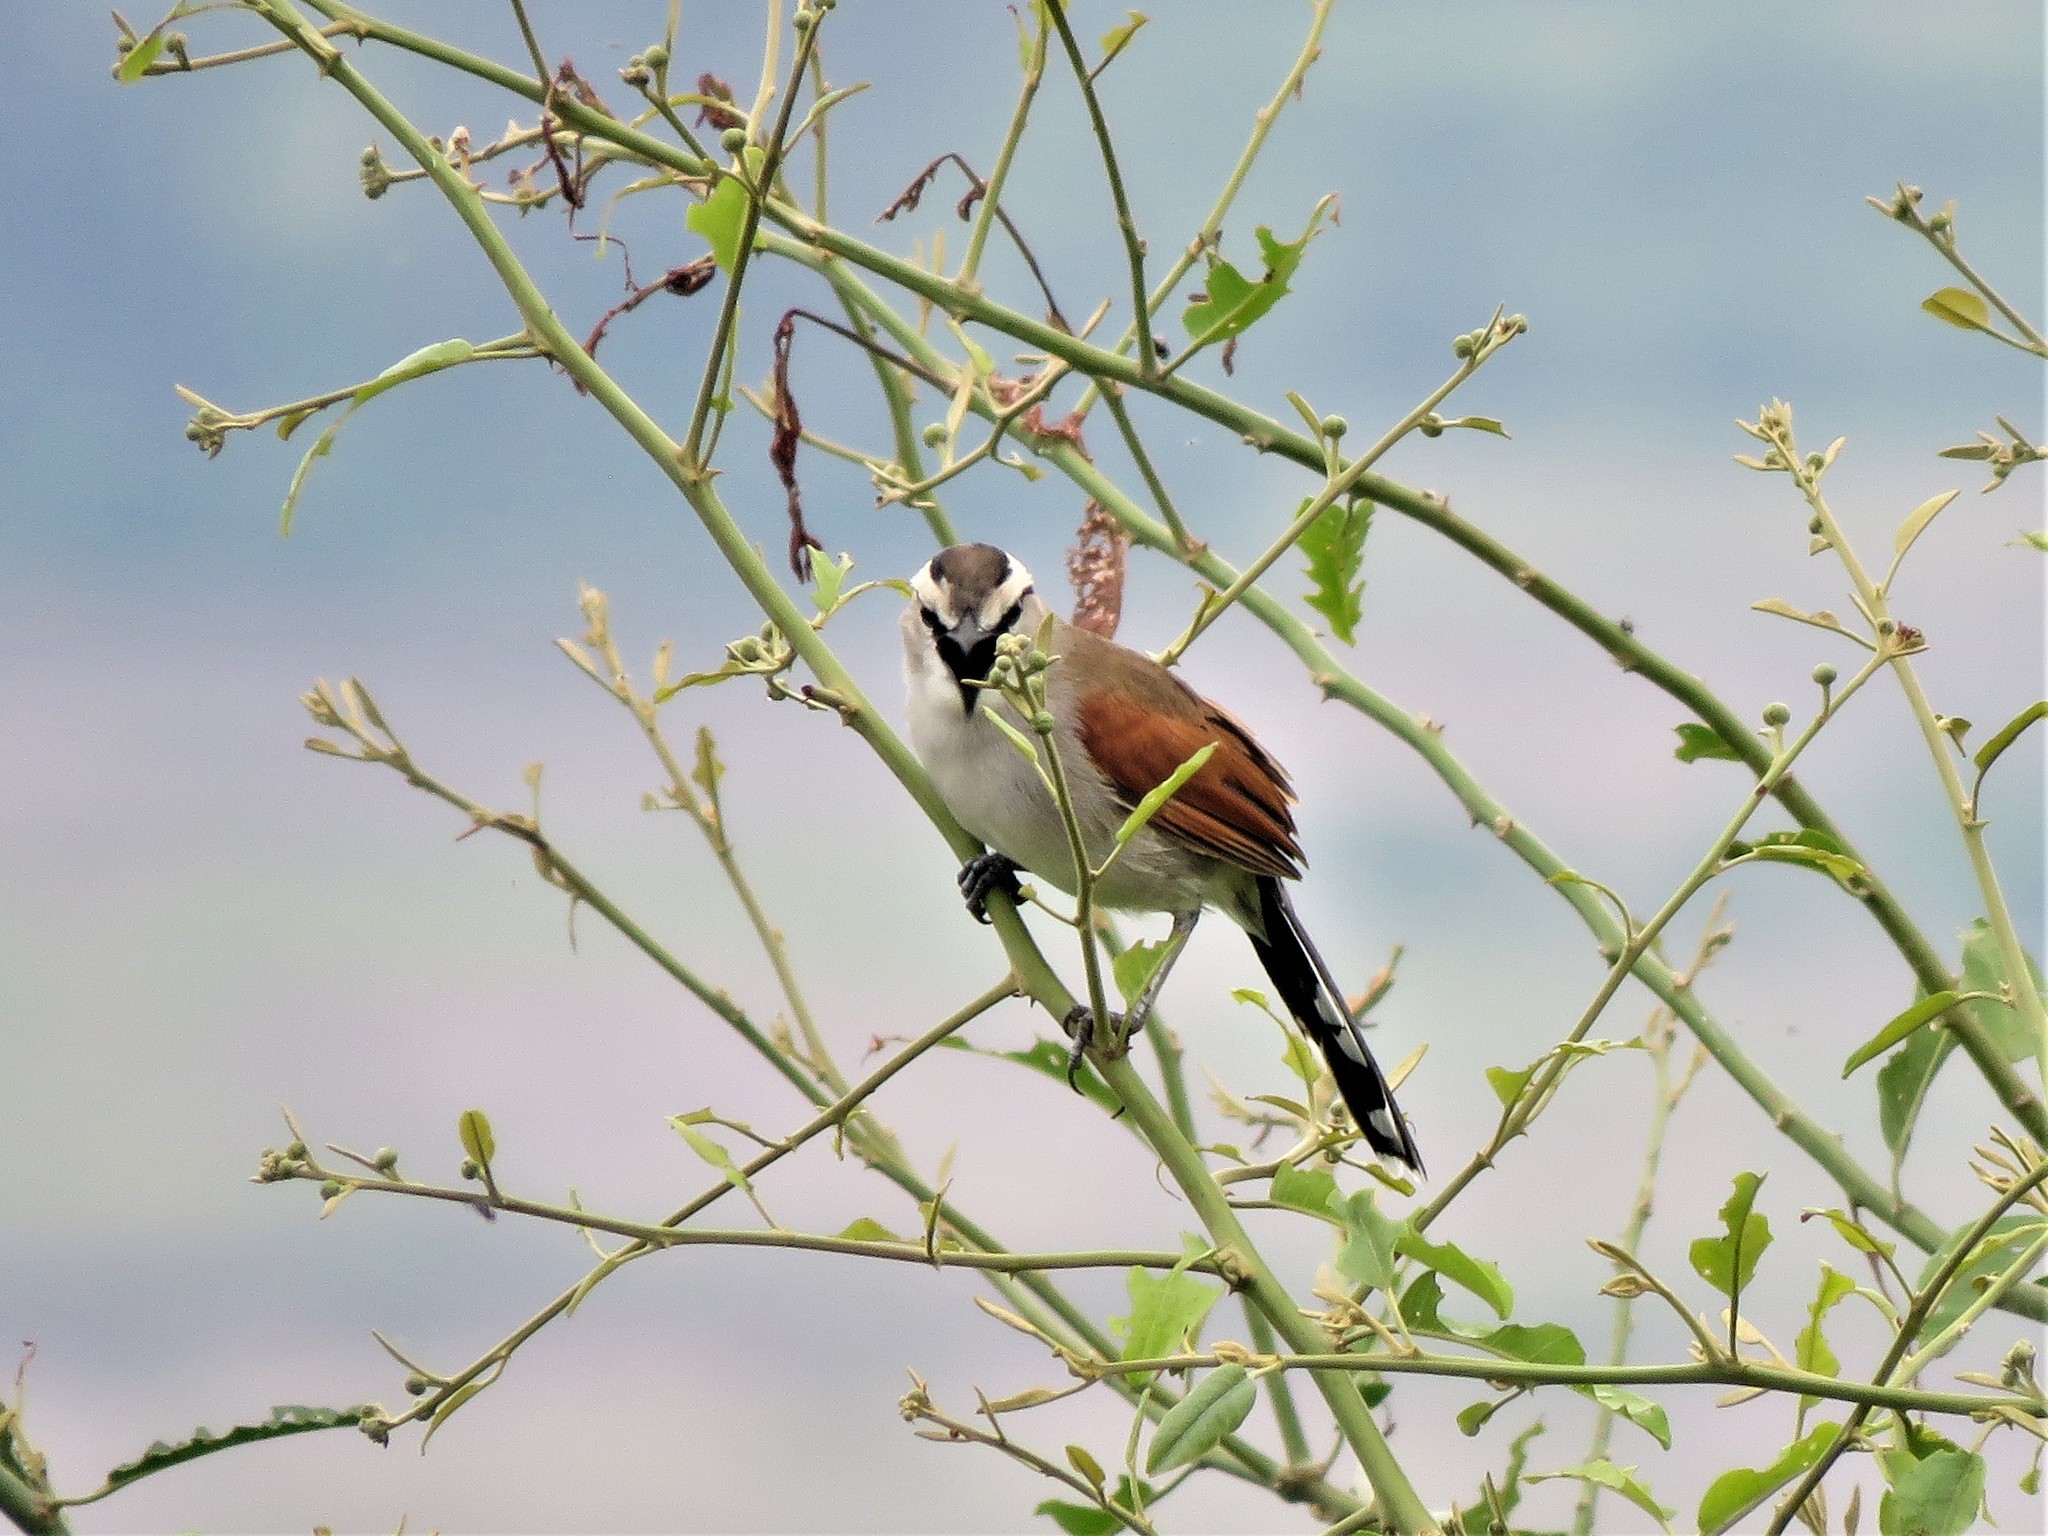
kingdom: Animalia
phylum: Chordata
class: Aves
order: Passeriformes
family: Malaconotidae
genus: Tchagra
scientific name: Tchagra australis
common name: Brown-crowned tchagra
